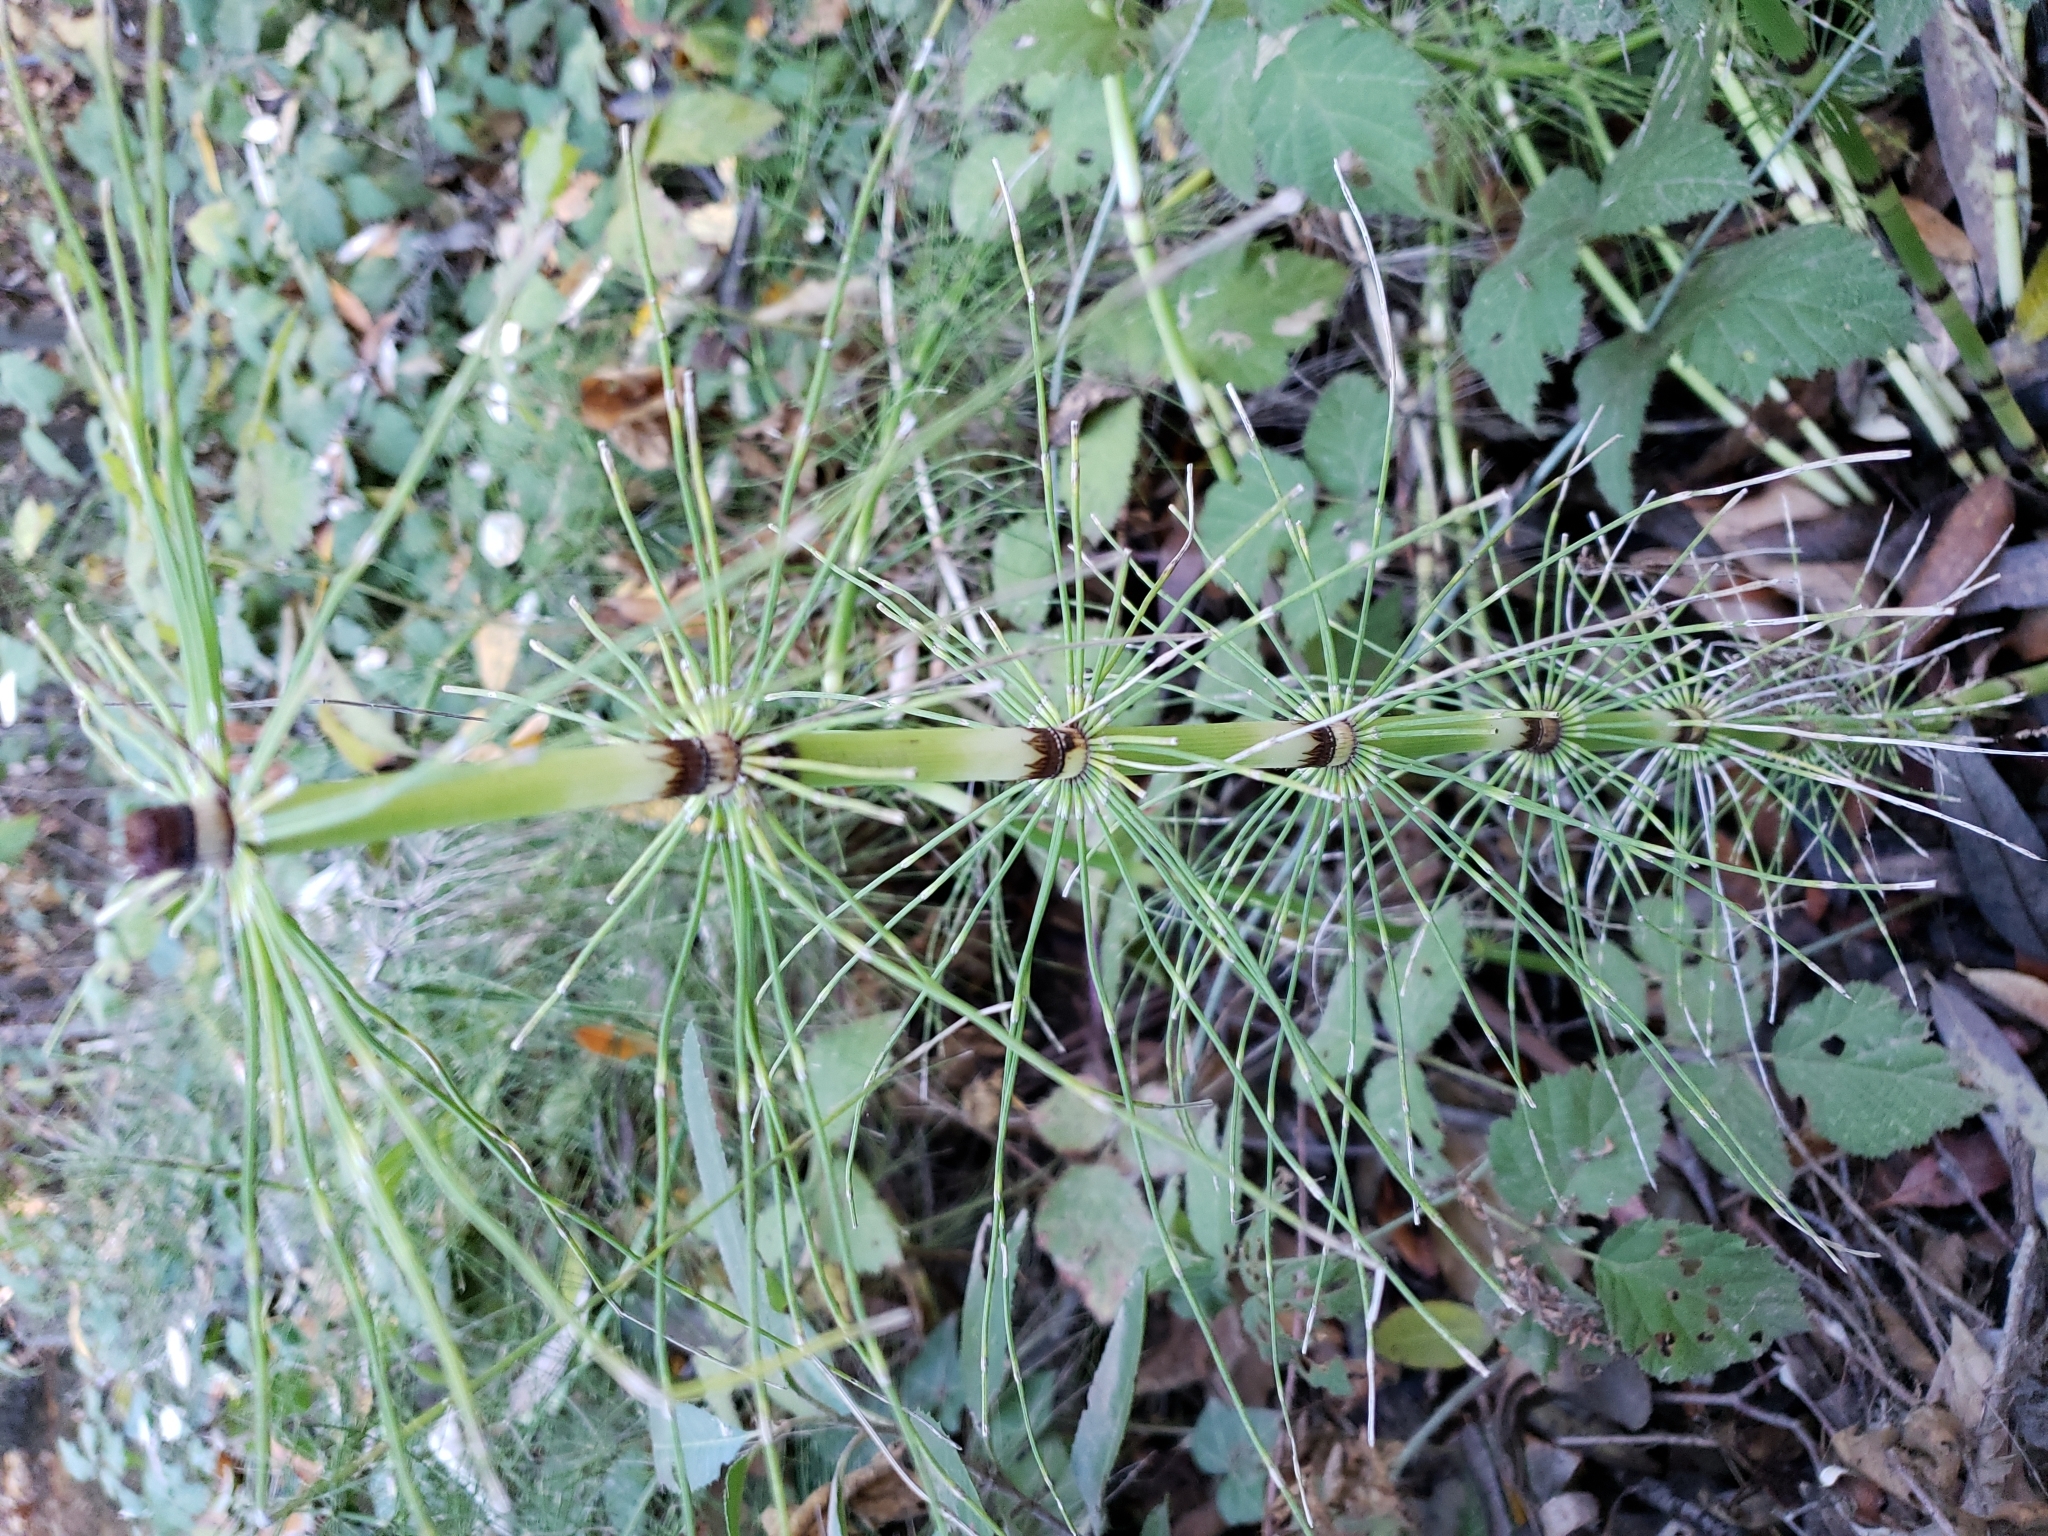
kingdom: Plantae
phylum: Tracheophyta
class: Polypodiopsida
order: Equisetales
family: Equisetaceae
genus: Equisetum
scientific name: Equisetum braunii
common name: Braun's horsetail
